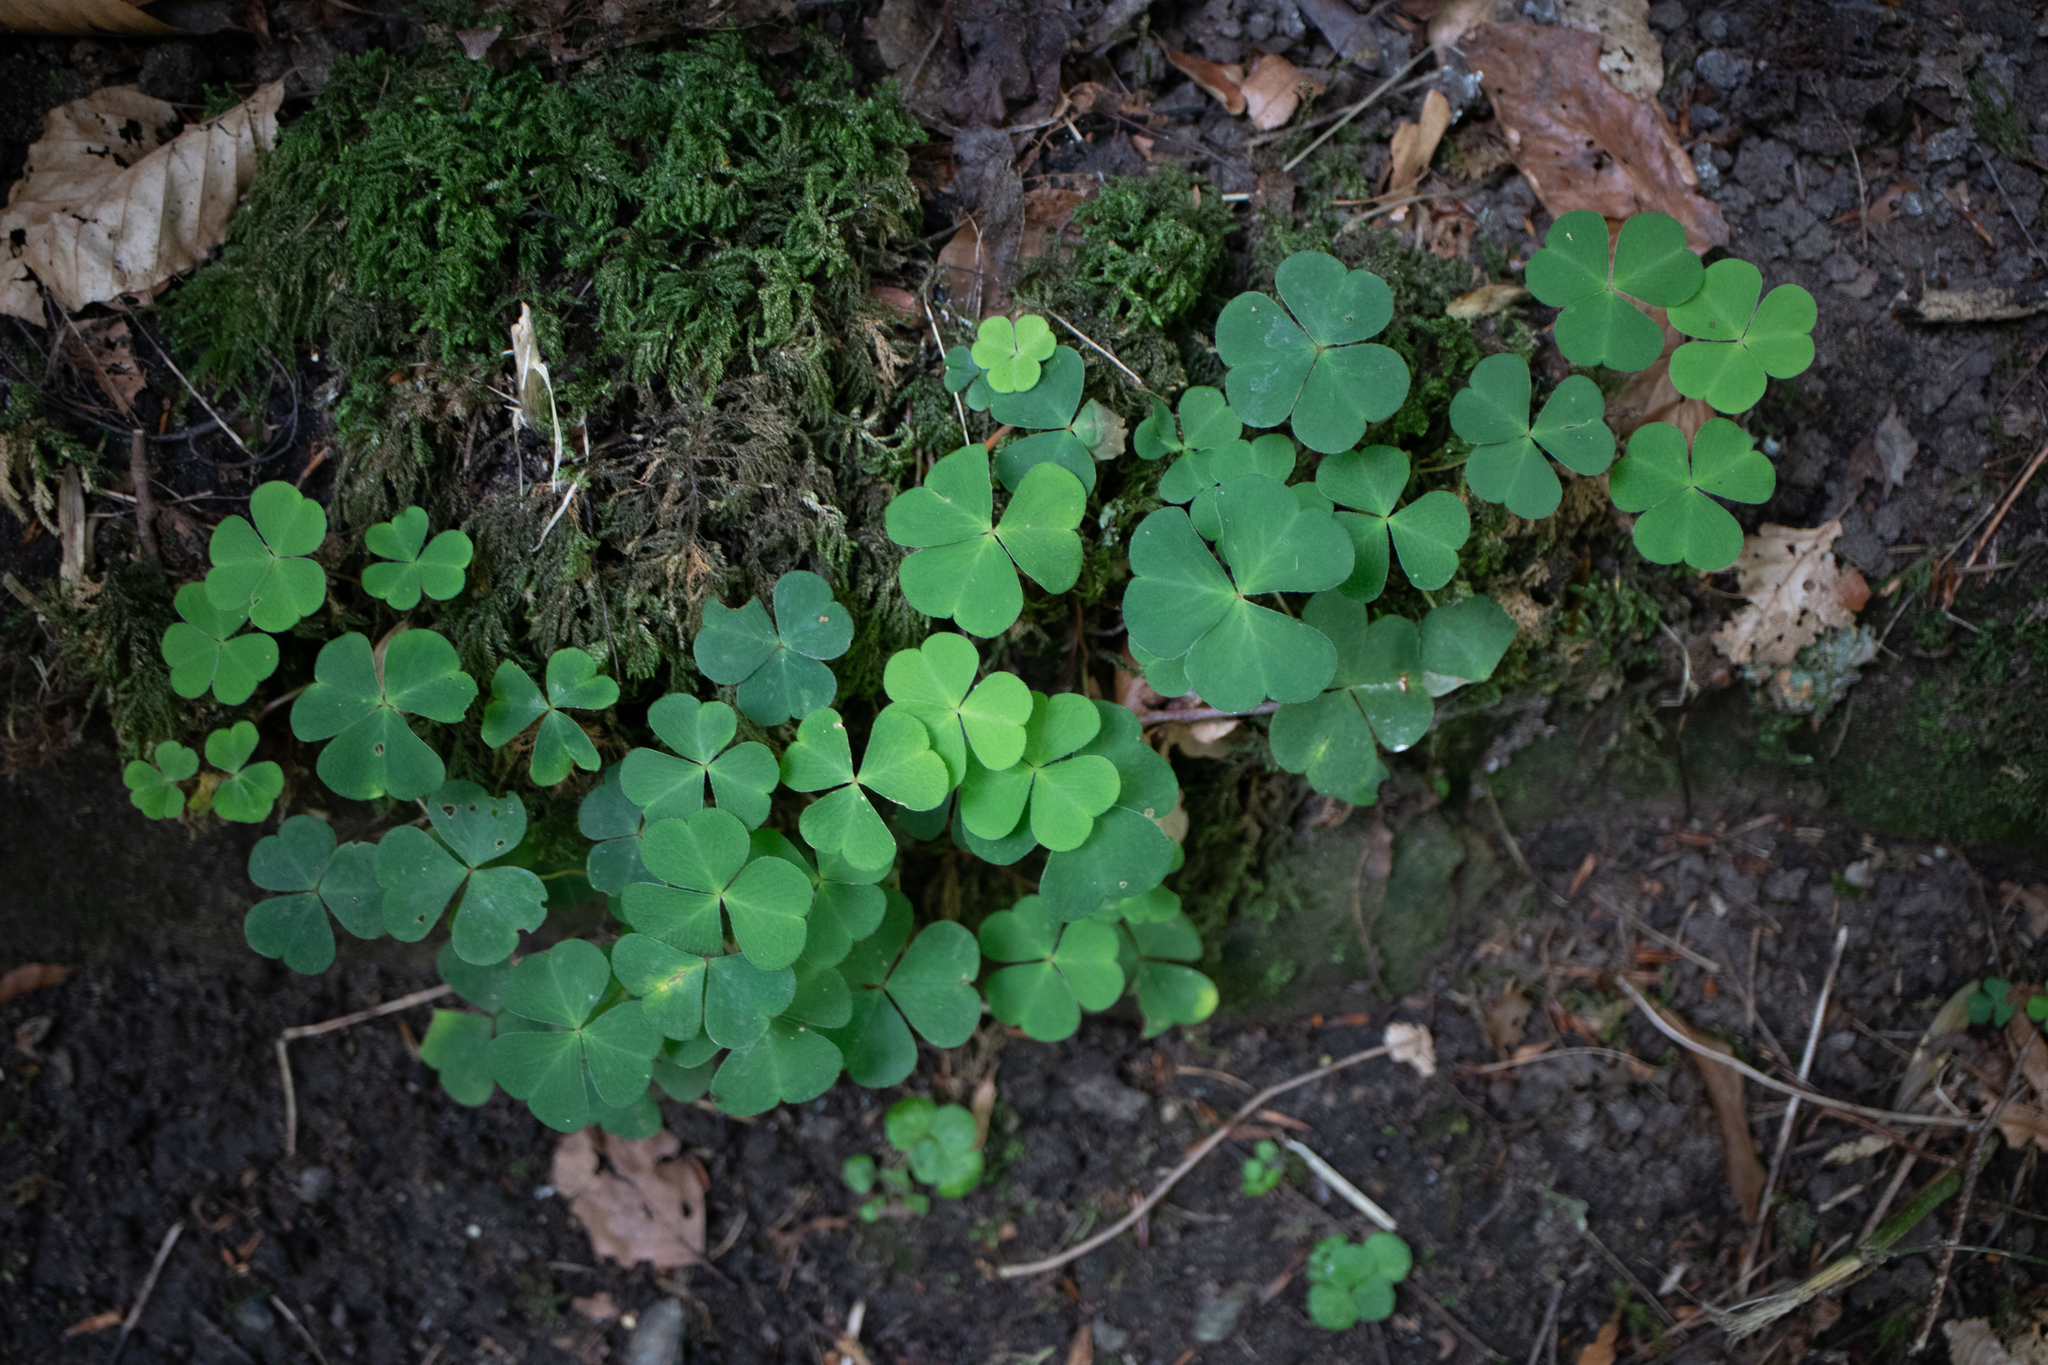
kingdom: Plantae
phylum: Tracheophyta
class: Magnoliopsida
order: Oxalidales
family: Oxalidaceae
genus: Oxalis
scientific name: Oxalis acetosella
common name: Wood-sorrel
